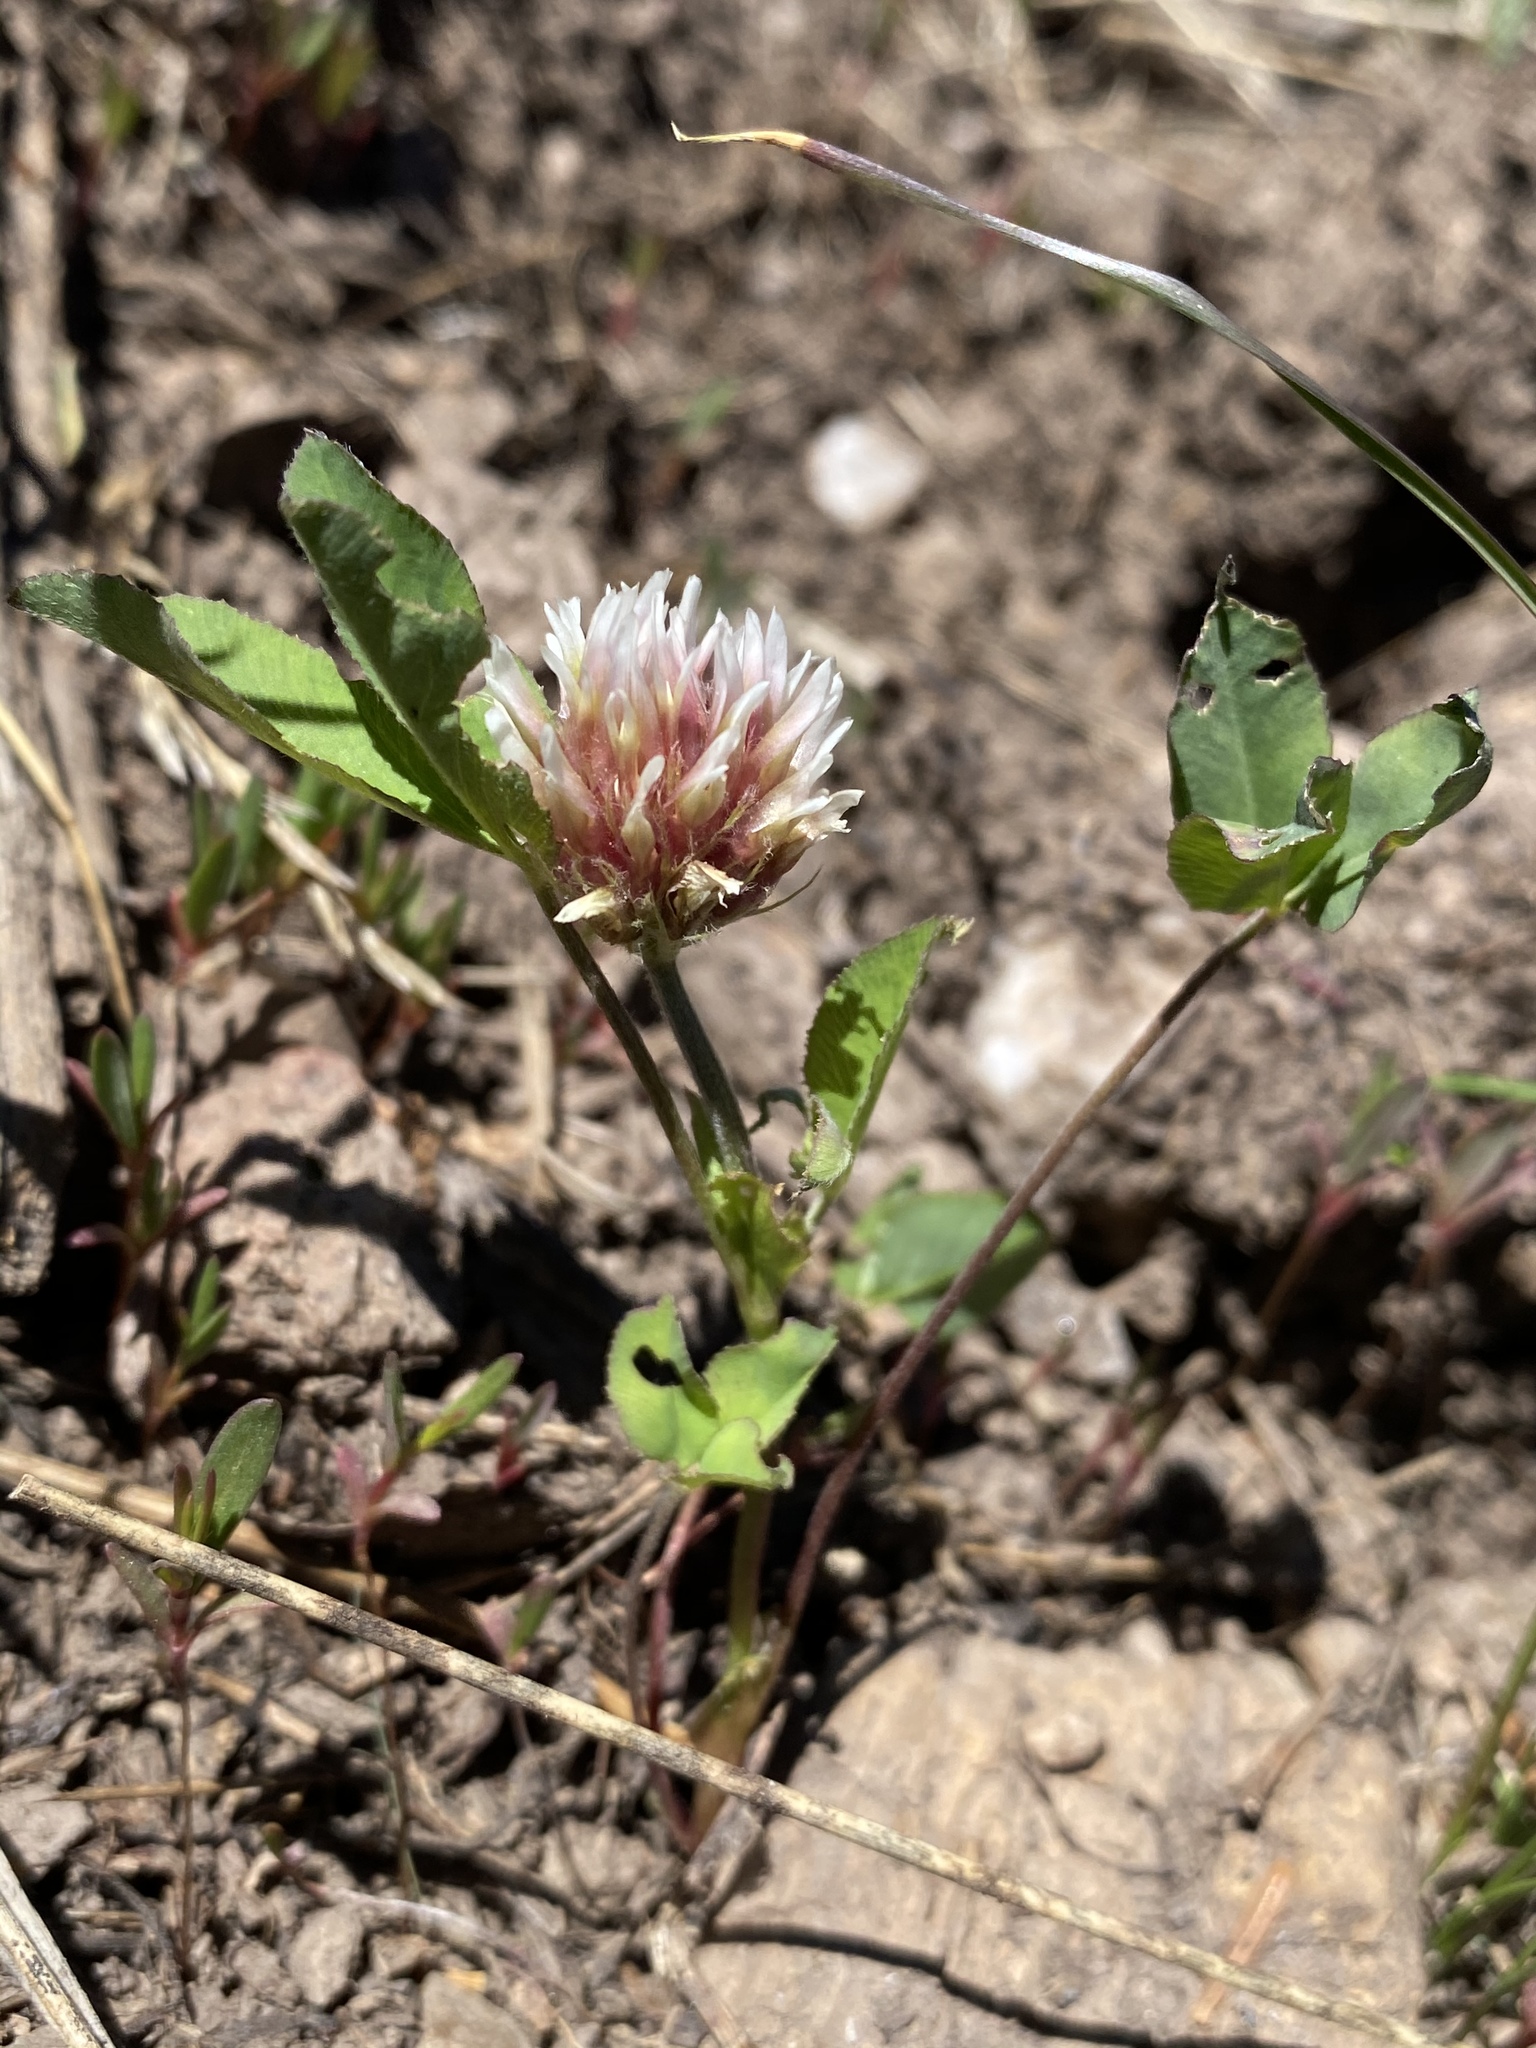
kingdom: Plantae
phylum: Tracheophyta
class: Magnoliopsida
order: Fabales
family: Fabaceae
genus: Trifolium
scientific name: Trifolium longipes
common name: Long-stalk clover
